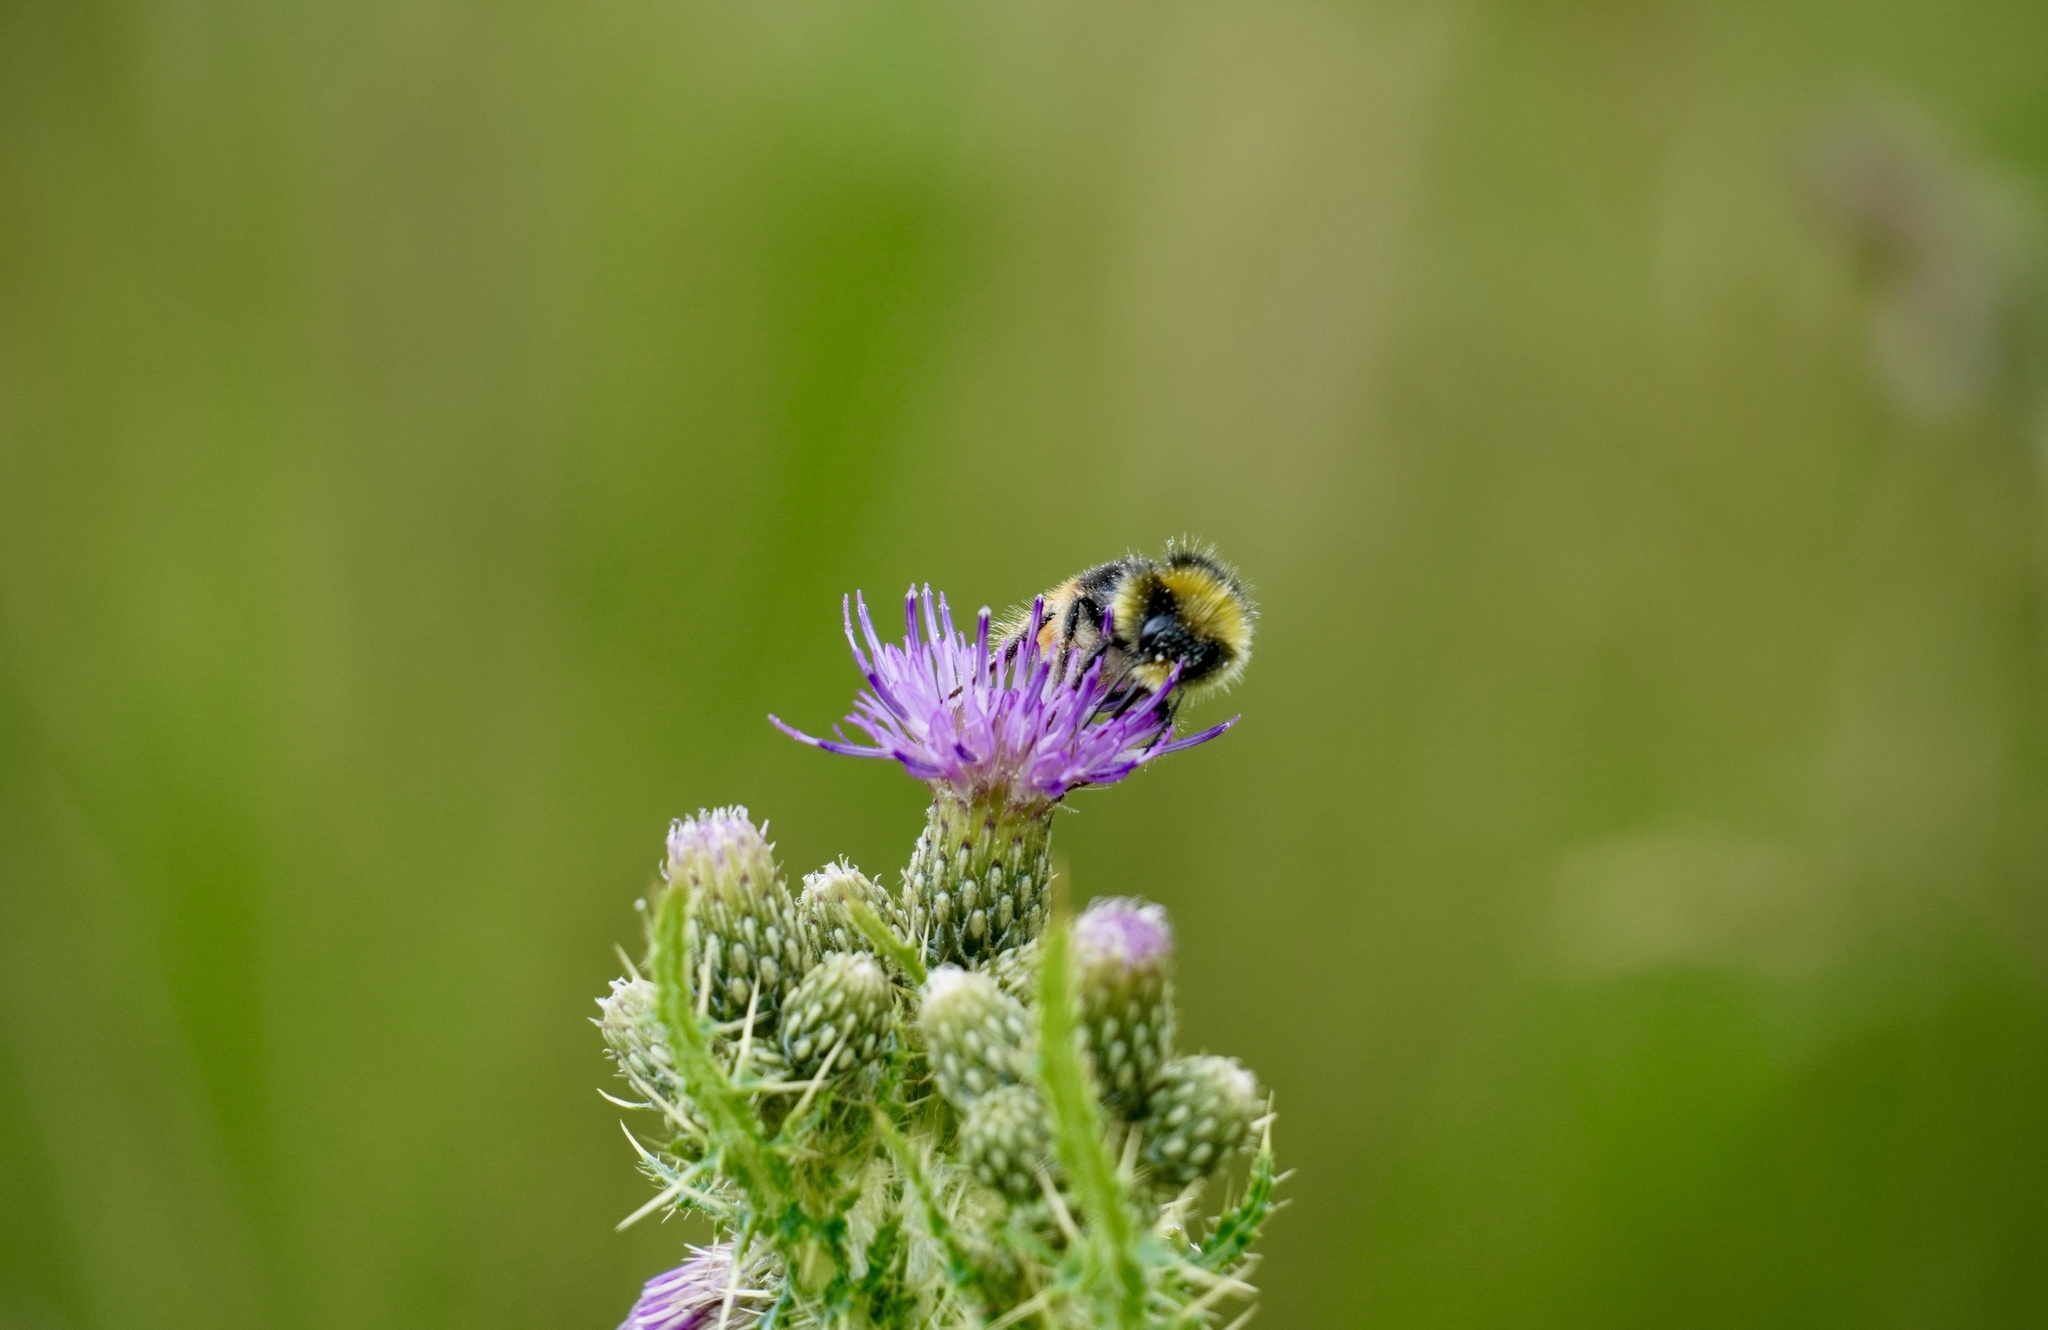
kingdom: Animalia
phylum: Arthropoda
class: Insecta
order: Hymenoptera
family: Apidae
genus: Bombus
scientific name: Bombus lapidarius
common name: Large red-tailed humble-bee
